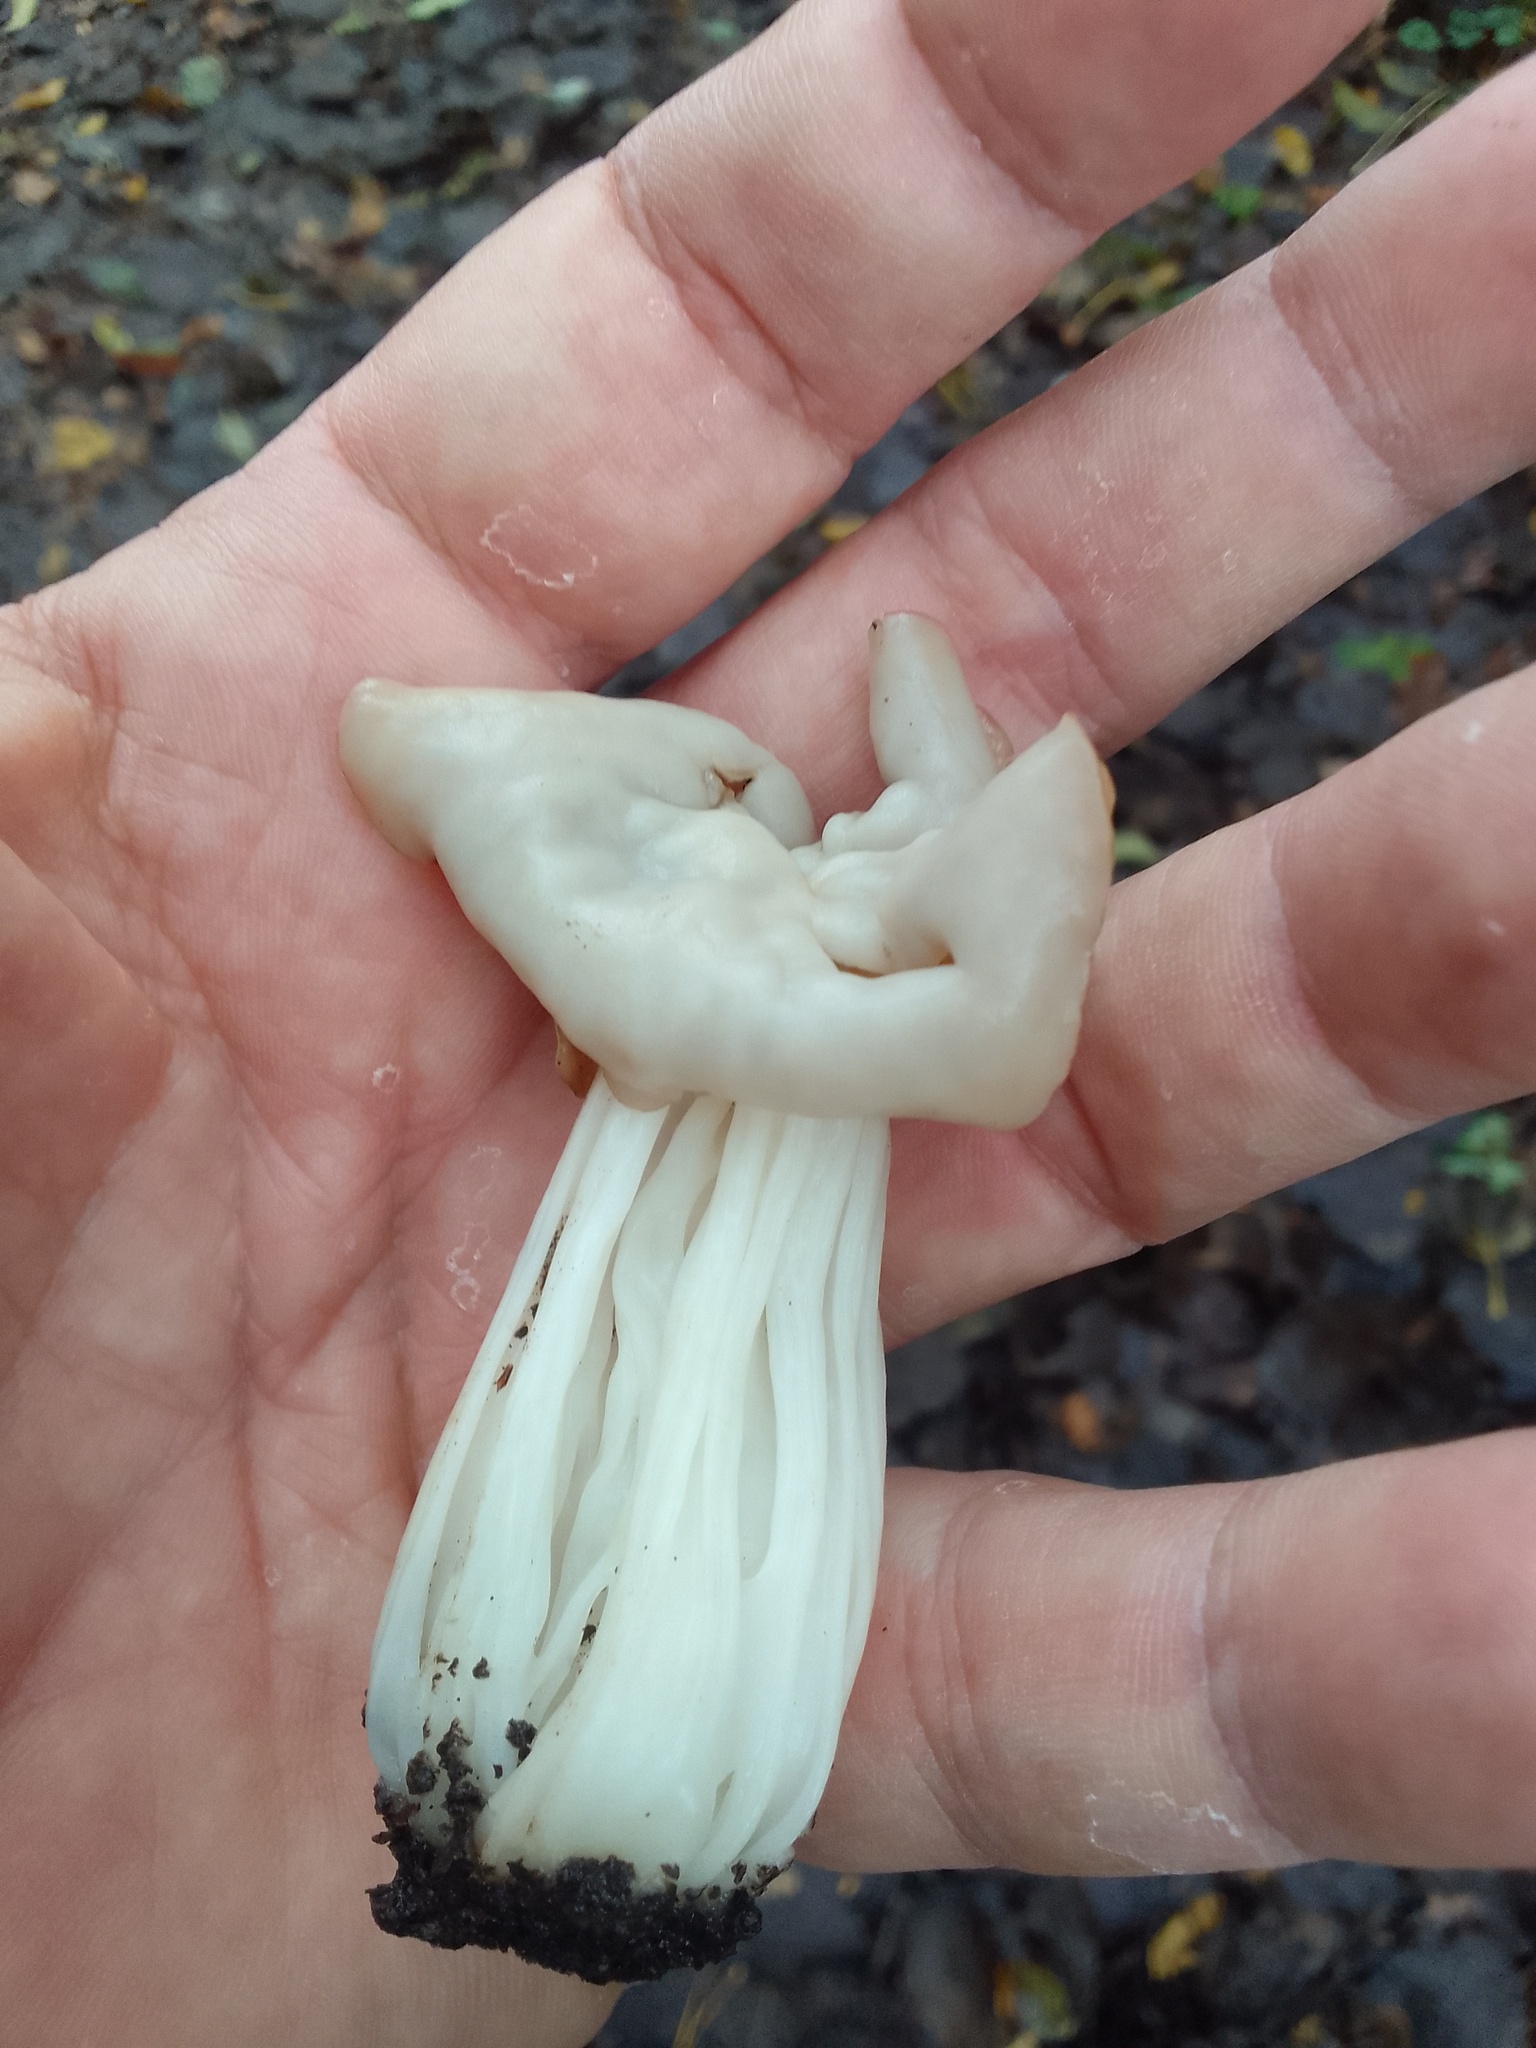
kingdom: Fungi
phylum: Ascomycota
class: Pezizomycetes
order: Pezizales
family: Helvellaceae
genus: Helvella
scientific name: Helvella crispa
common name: White saddle
